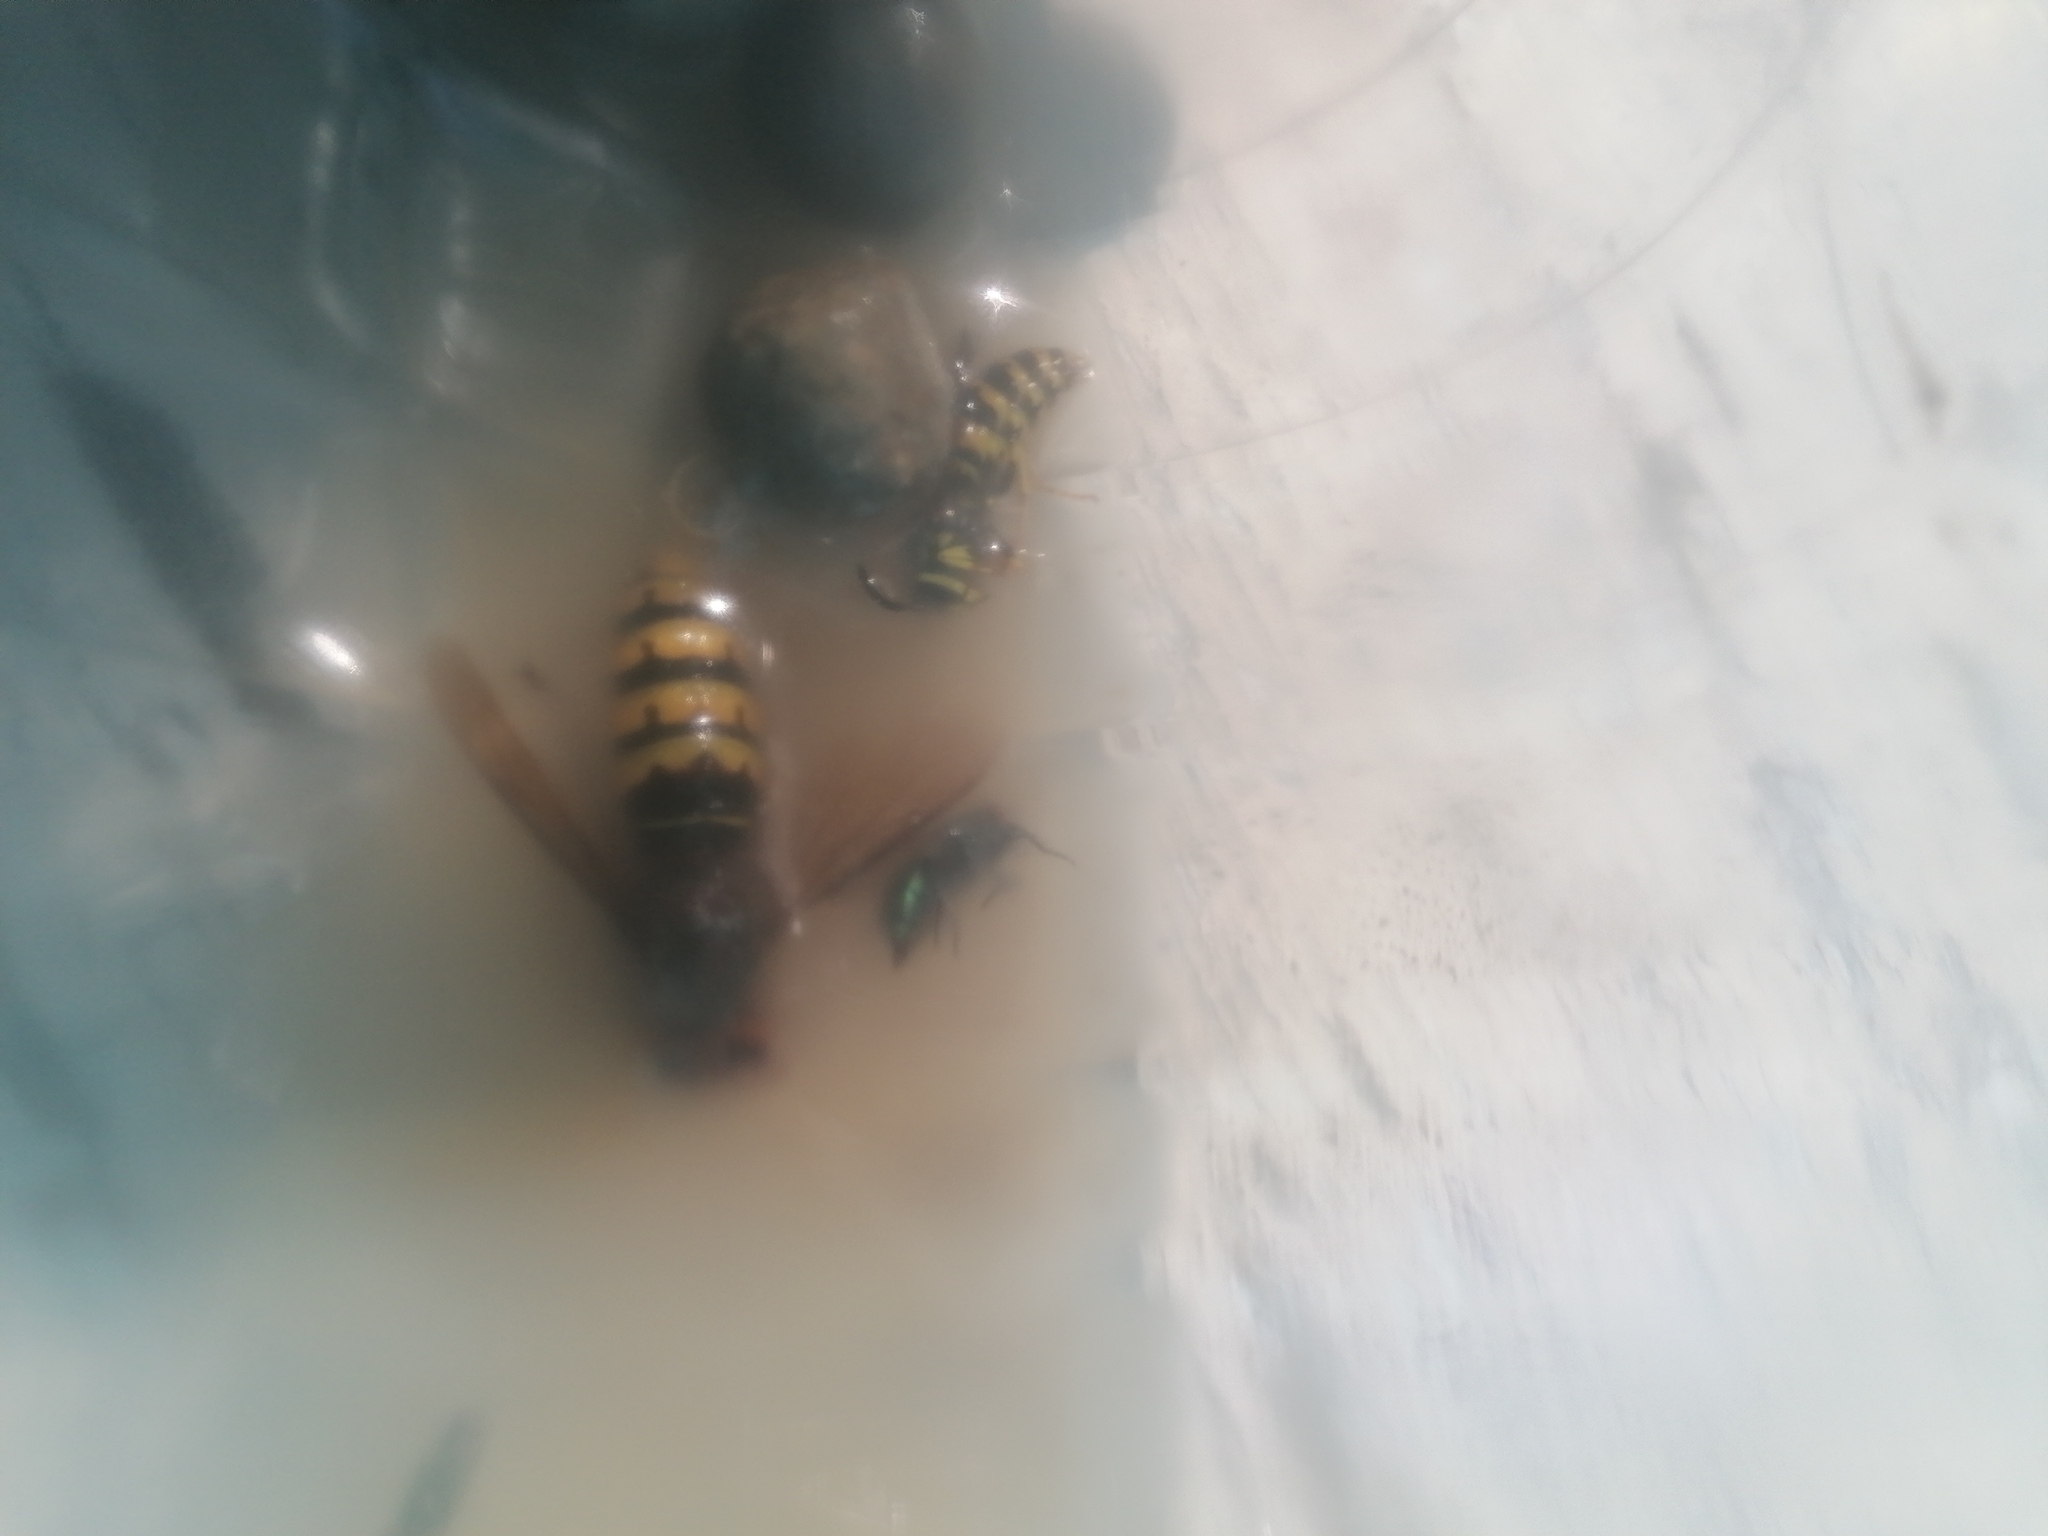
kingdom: Animalia
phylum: Arthropoda
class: Insecta
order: Hymenoptera
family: Vespidae
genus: Vespa
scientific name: Vespa crabro
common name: Hornet
